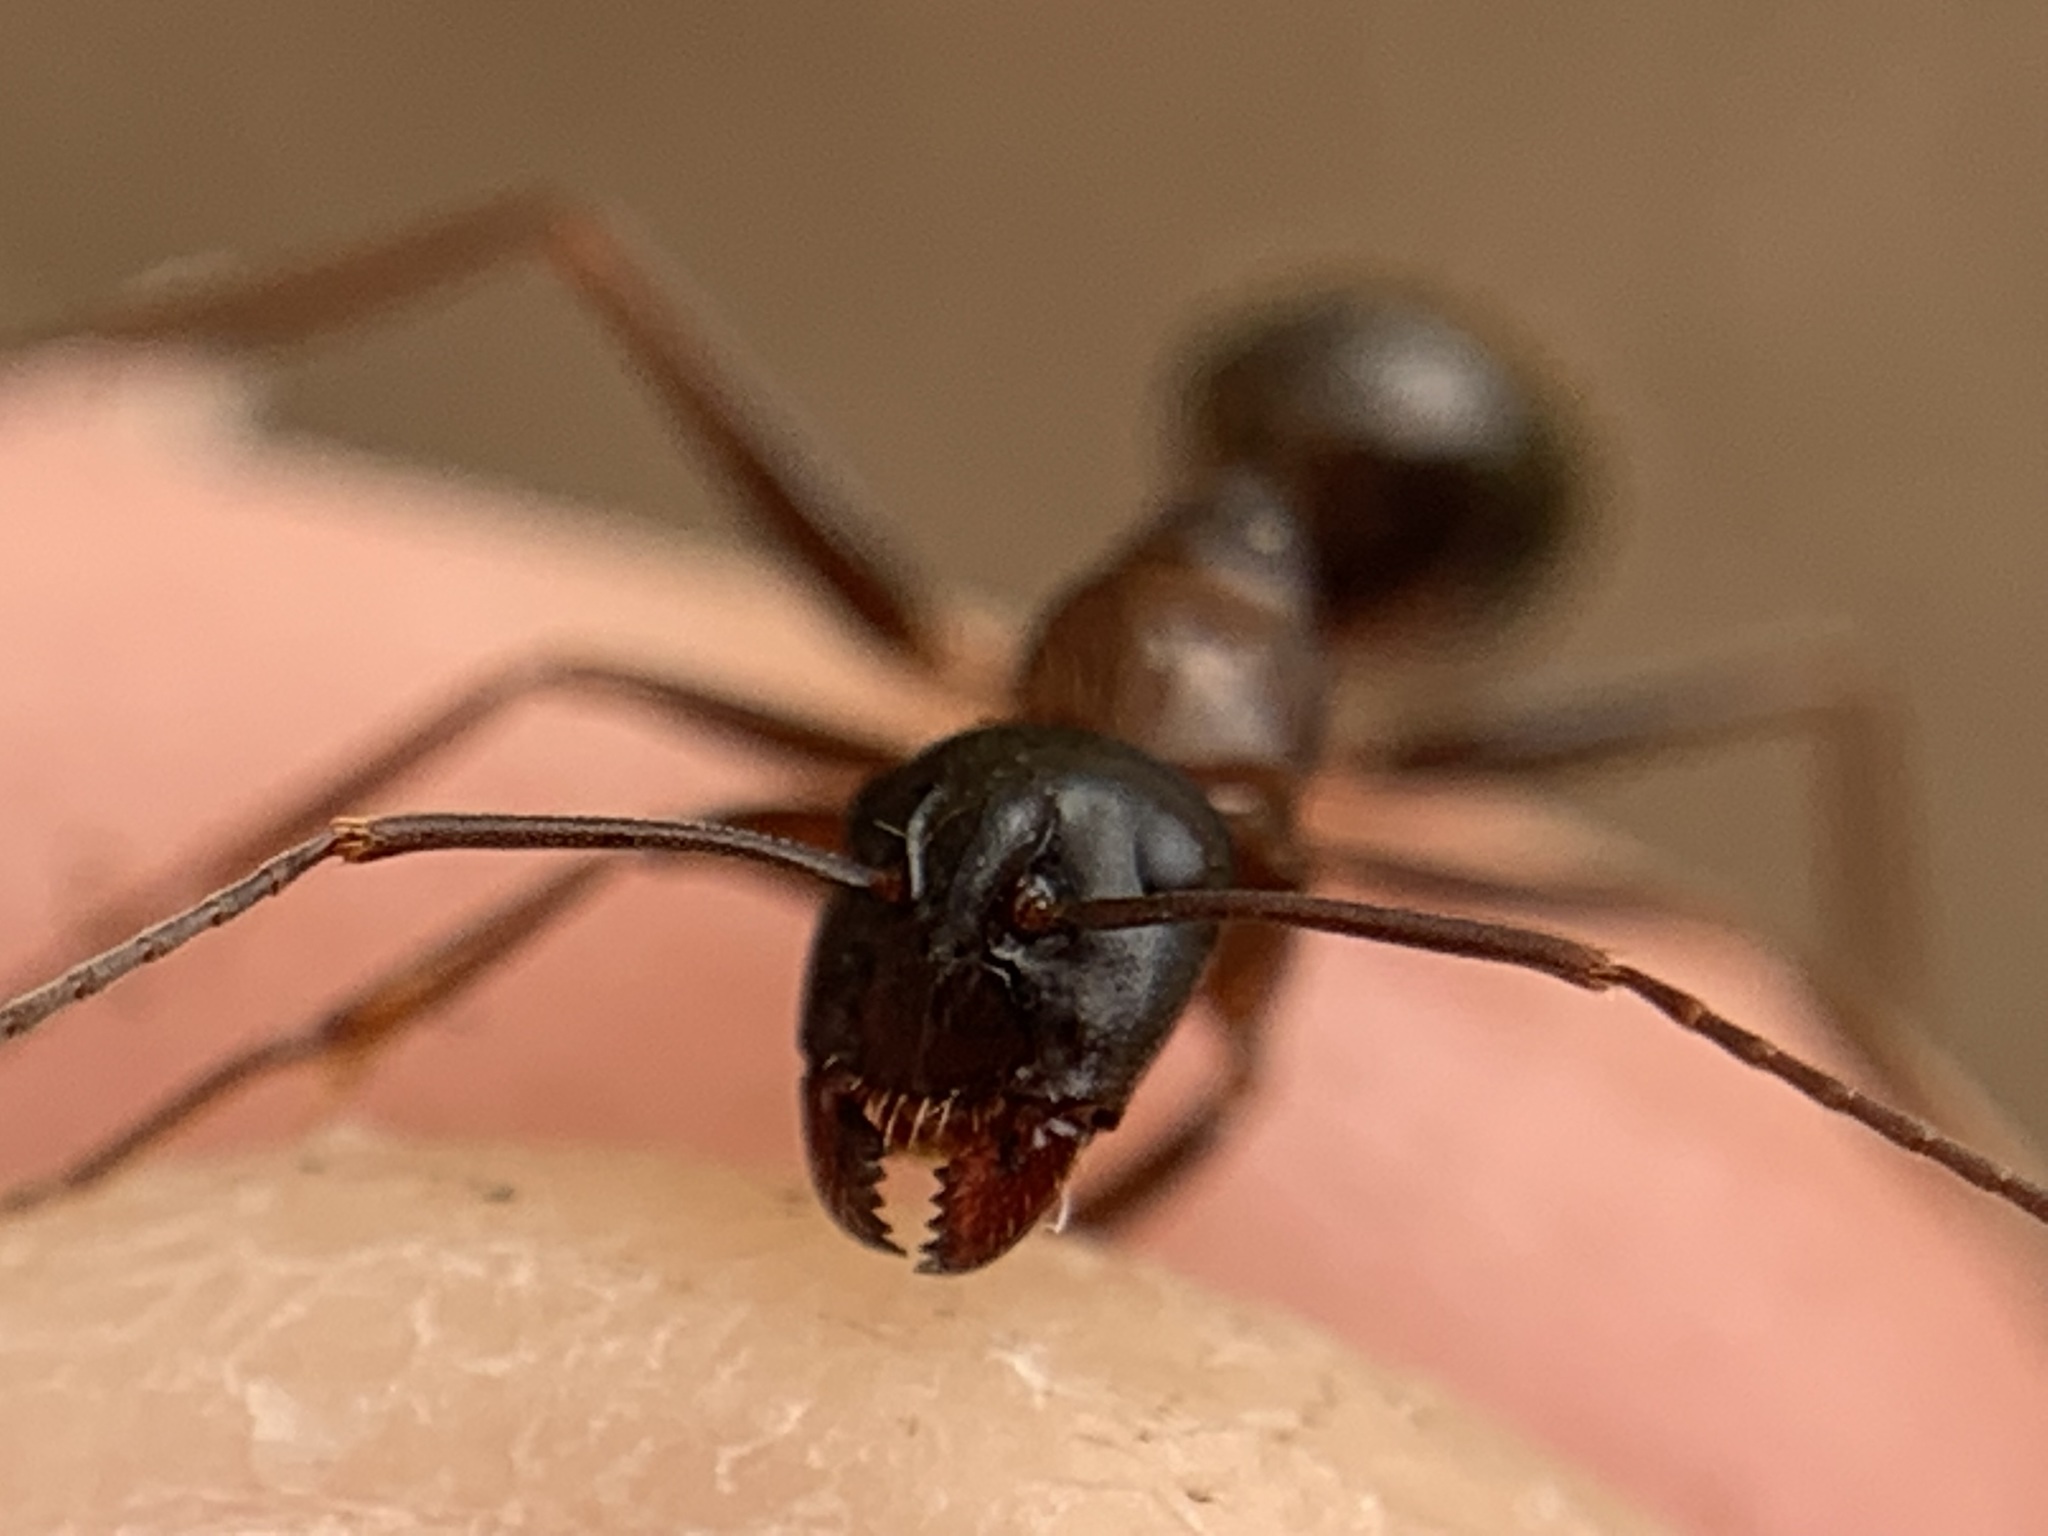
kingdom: Animalia
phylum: Arthropoda
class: Insecta
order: Hymenoptera
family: Formicidae
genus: Camponotus
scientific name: Camponotus vicinus
